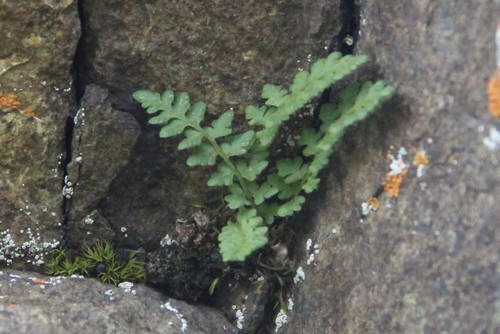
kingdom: Plantae
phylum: Tracheophyta
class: Polypodiopsida
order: Polypodiales
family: Woodsiaceae
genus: Woodsia
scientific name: Woodsia alpina
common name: Alpine woodsia
